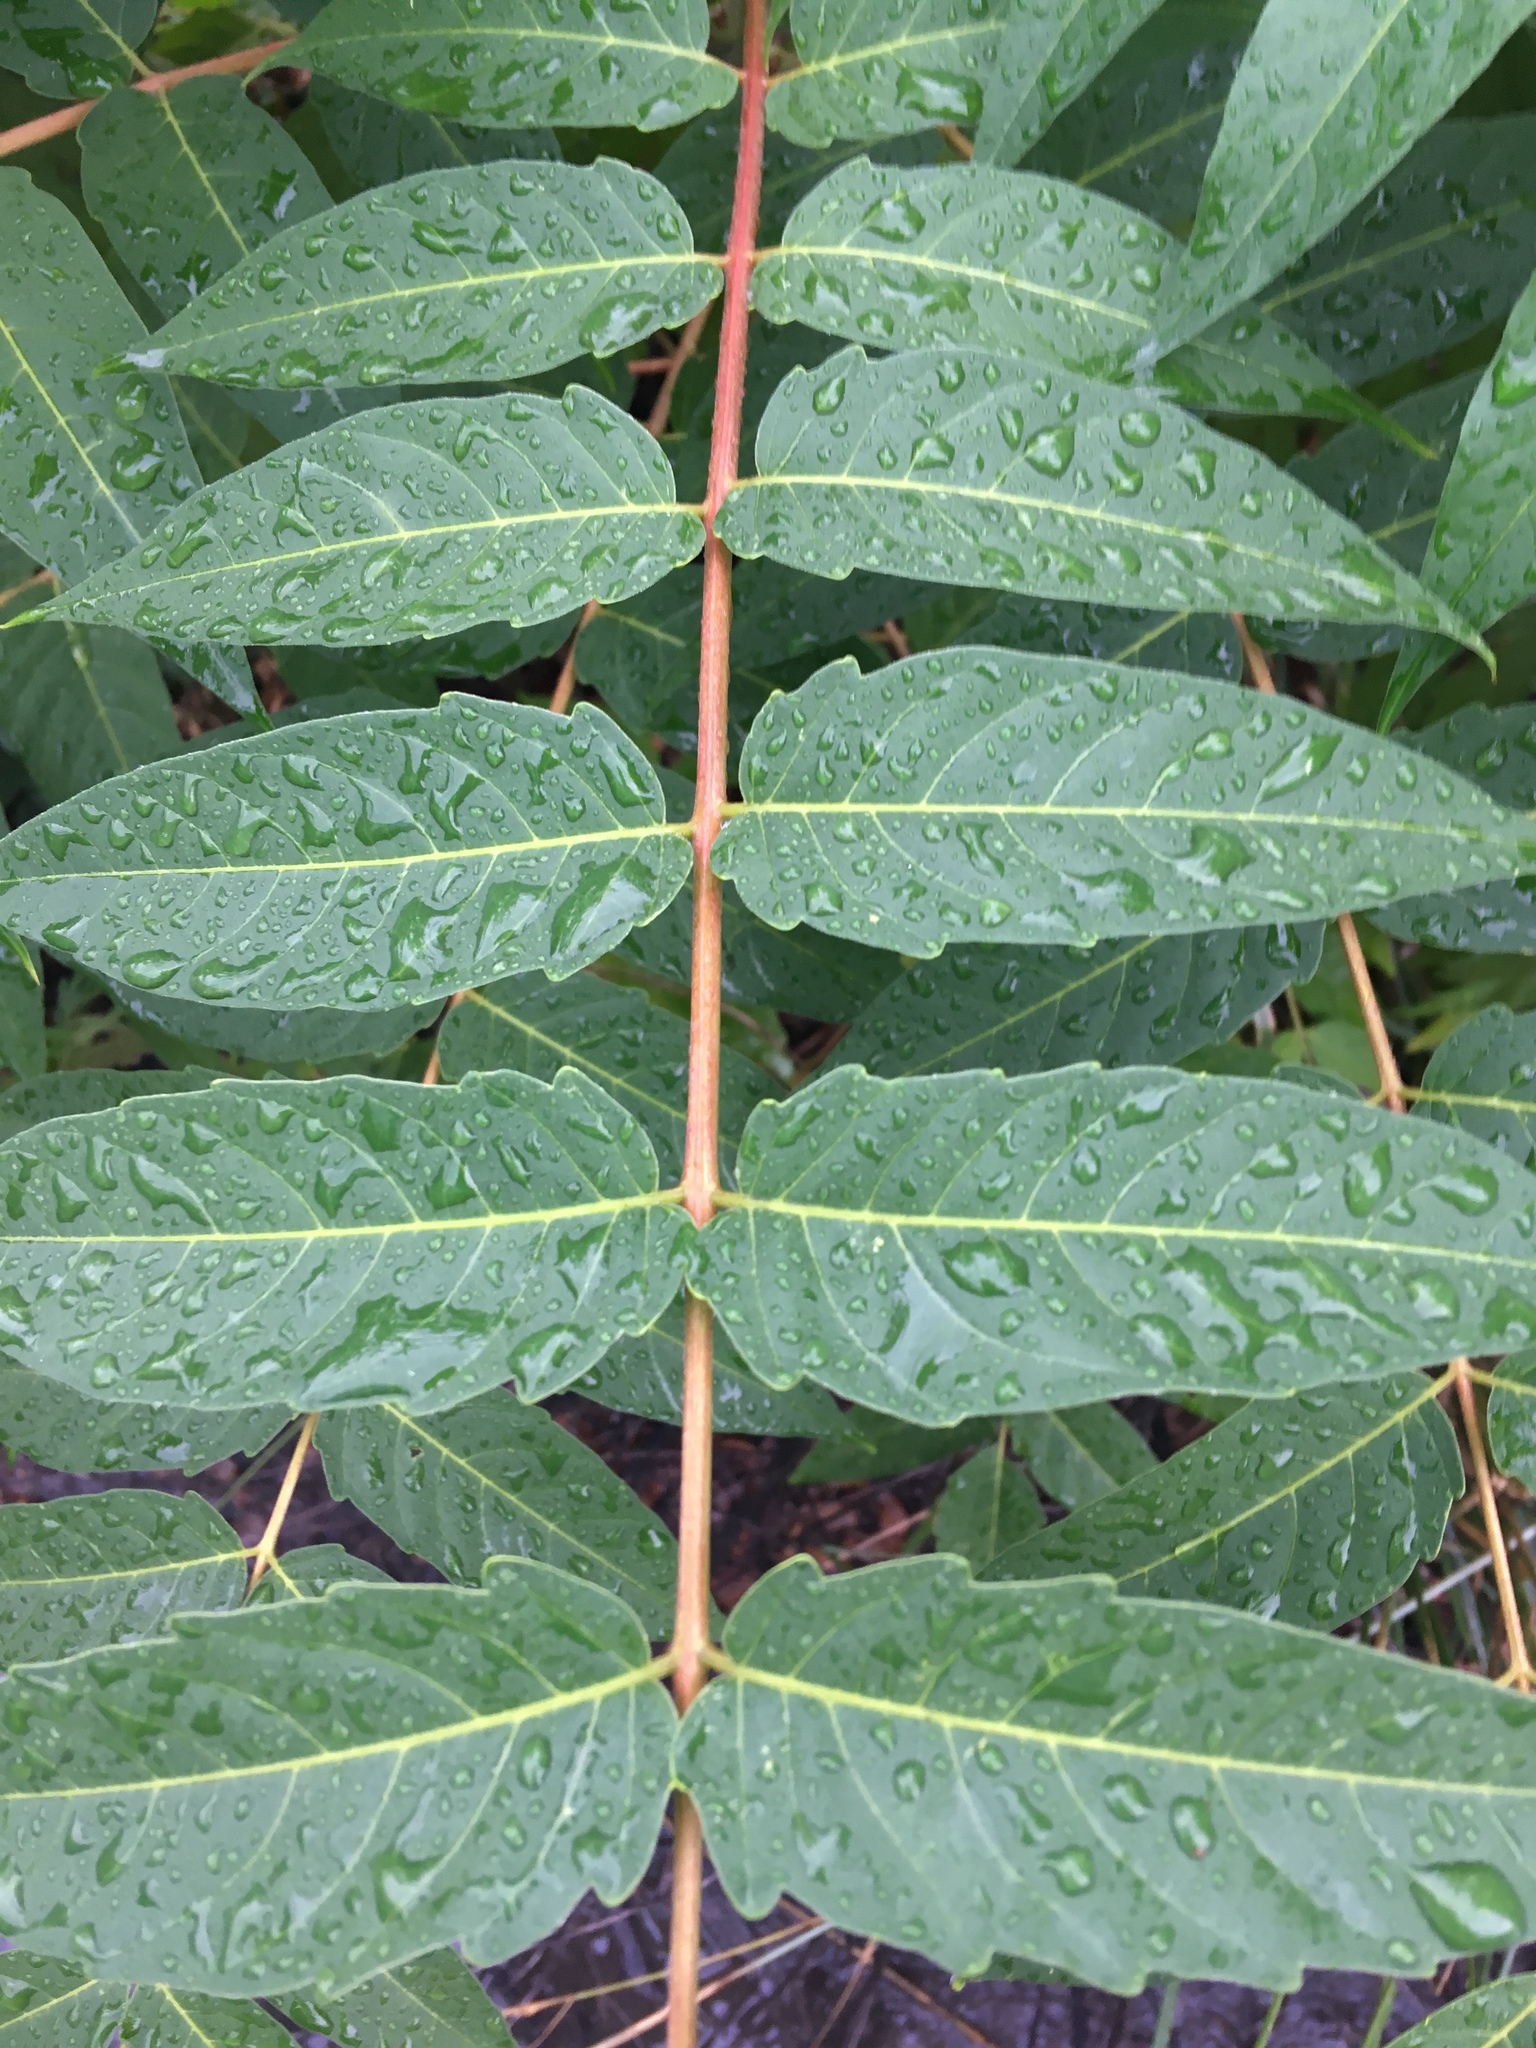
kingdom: Plantae
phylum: Tracheophyta
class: Magnoliopsida
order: Sapindales
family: Simaroubaceae
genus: Ailanthus
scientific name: Ailanthus altissima
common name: Tree-of-heaven
